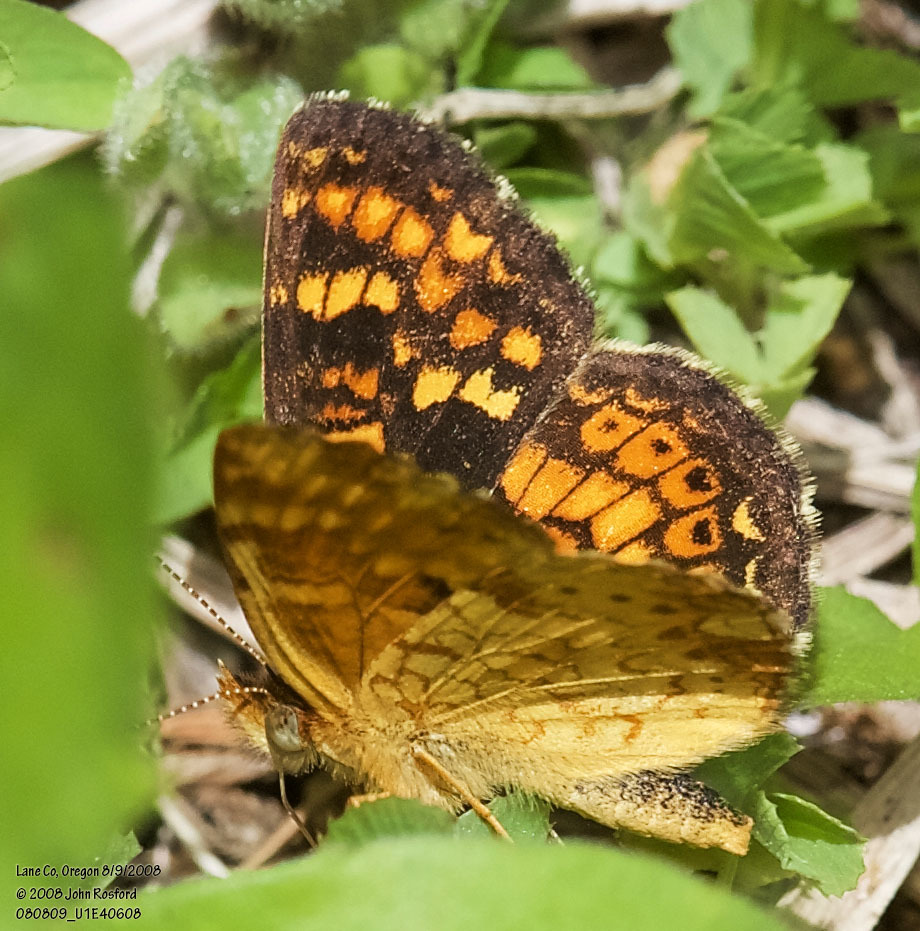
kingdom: Animalia
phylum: Arthropoda
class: Insecta
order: Lepidoptera
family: Nymphalidae
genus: Phyciodes
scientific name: Phyciodes tharos
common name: Pearl crescent
